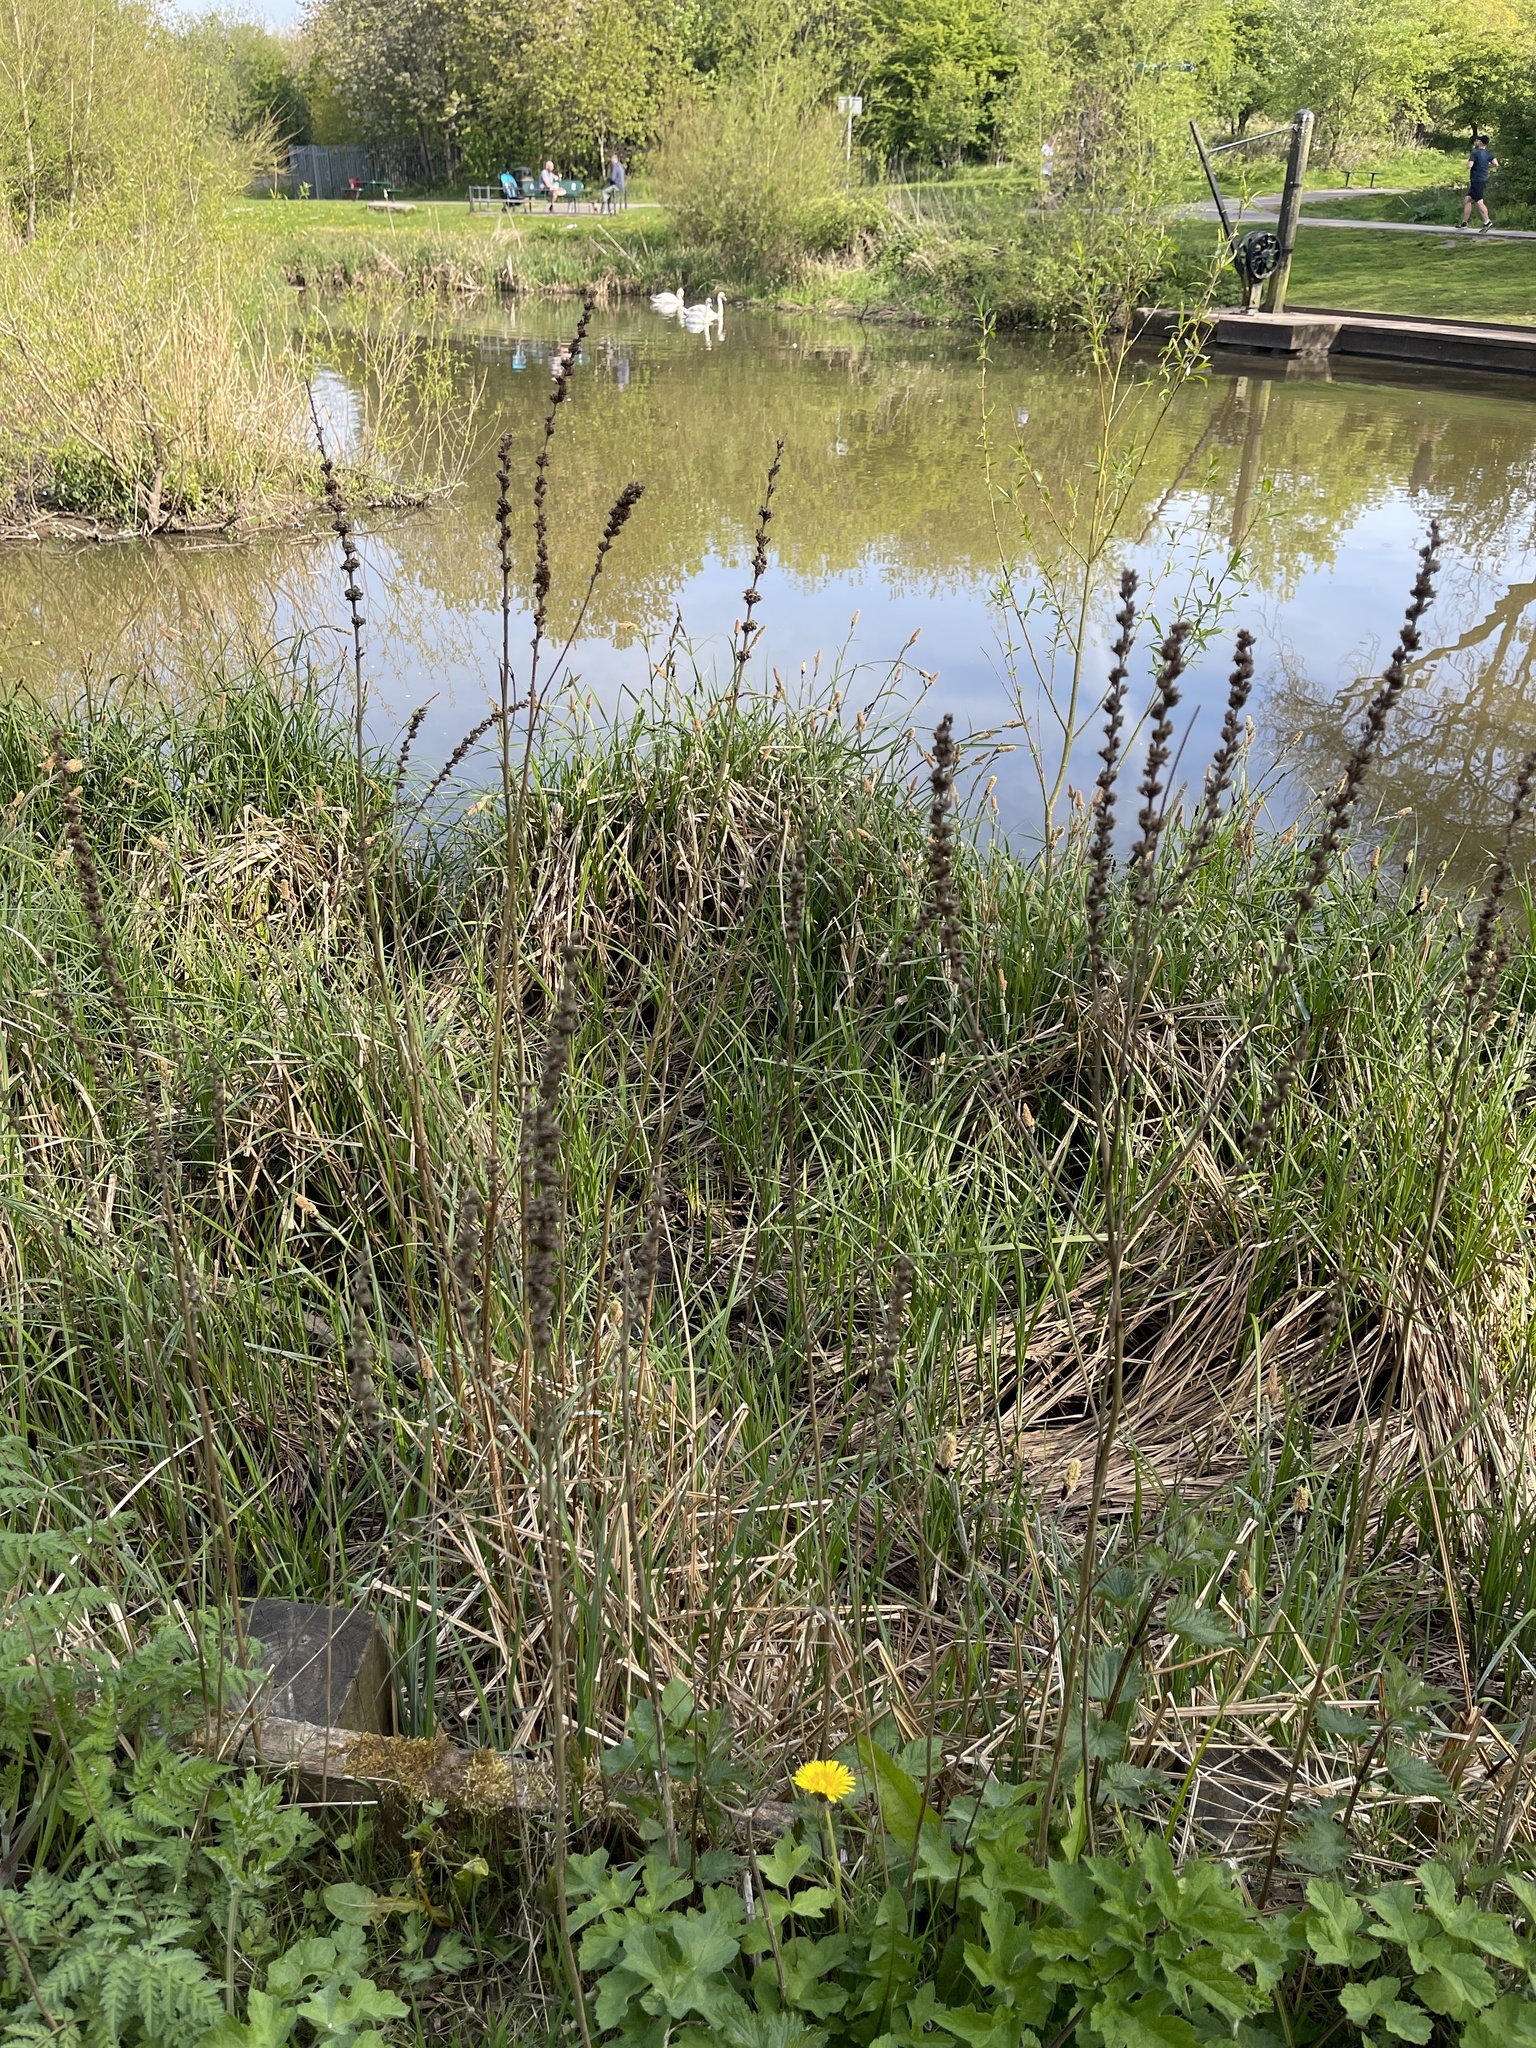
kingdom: Plantae
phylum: Tracheophyta
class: Magnoliopsida
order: Myrtales
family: Lythraceae
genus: Lythrum
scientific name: Lythrum salicaria
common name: Purple loosestrife
